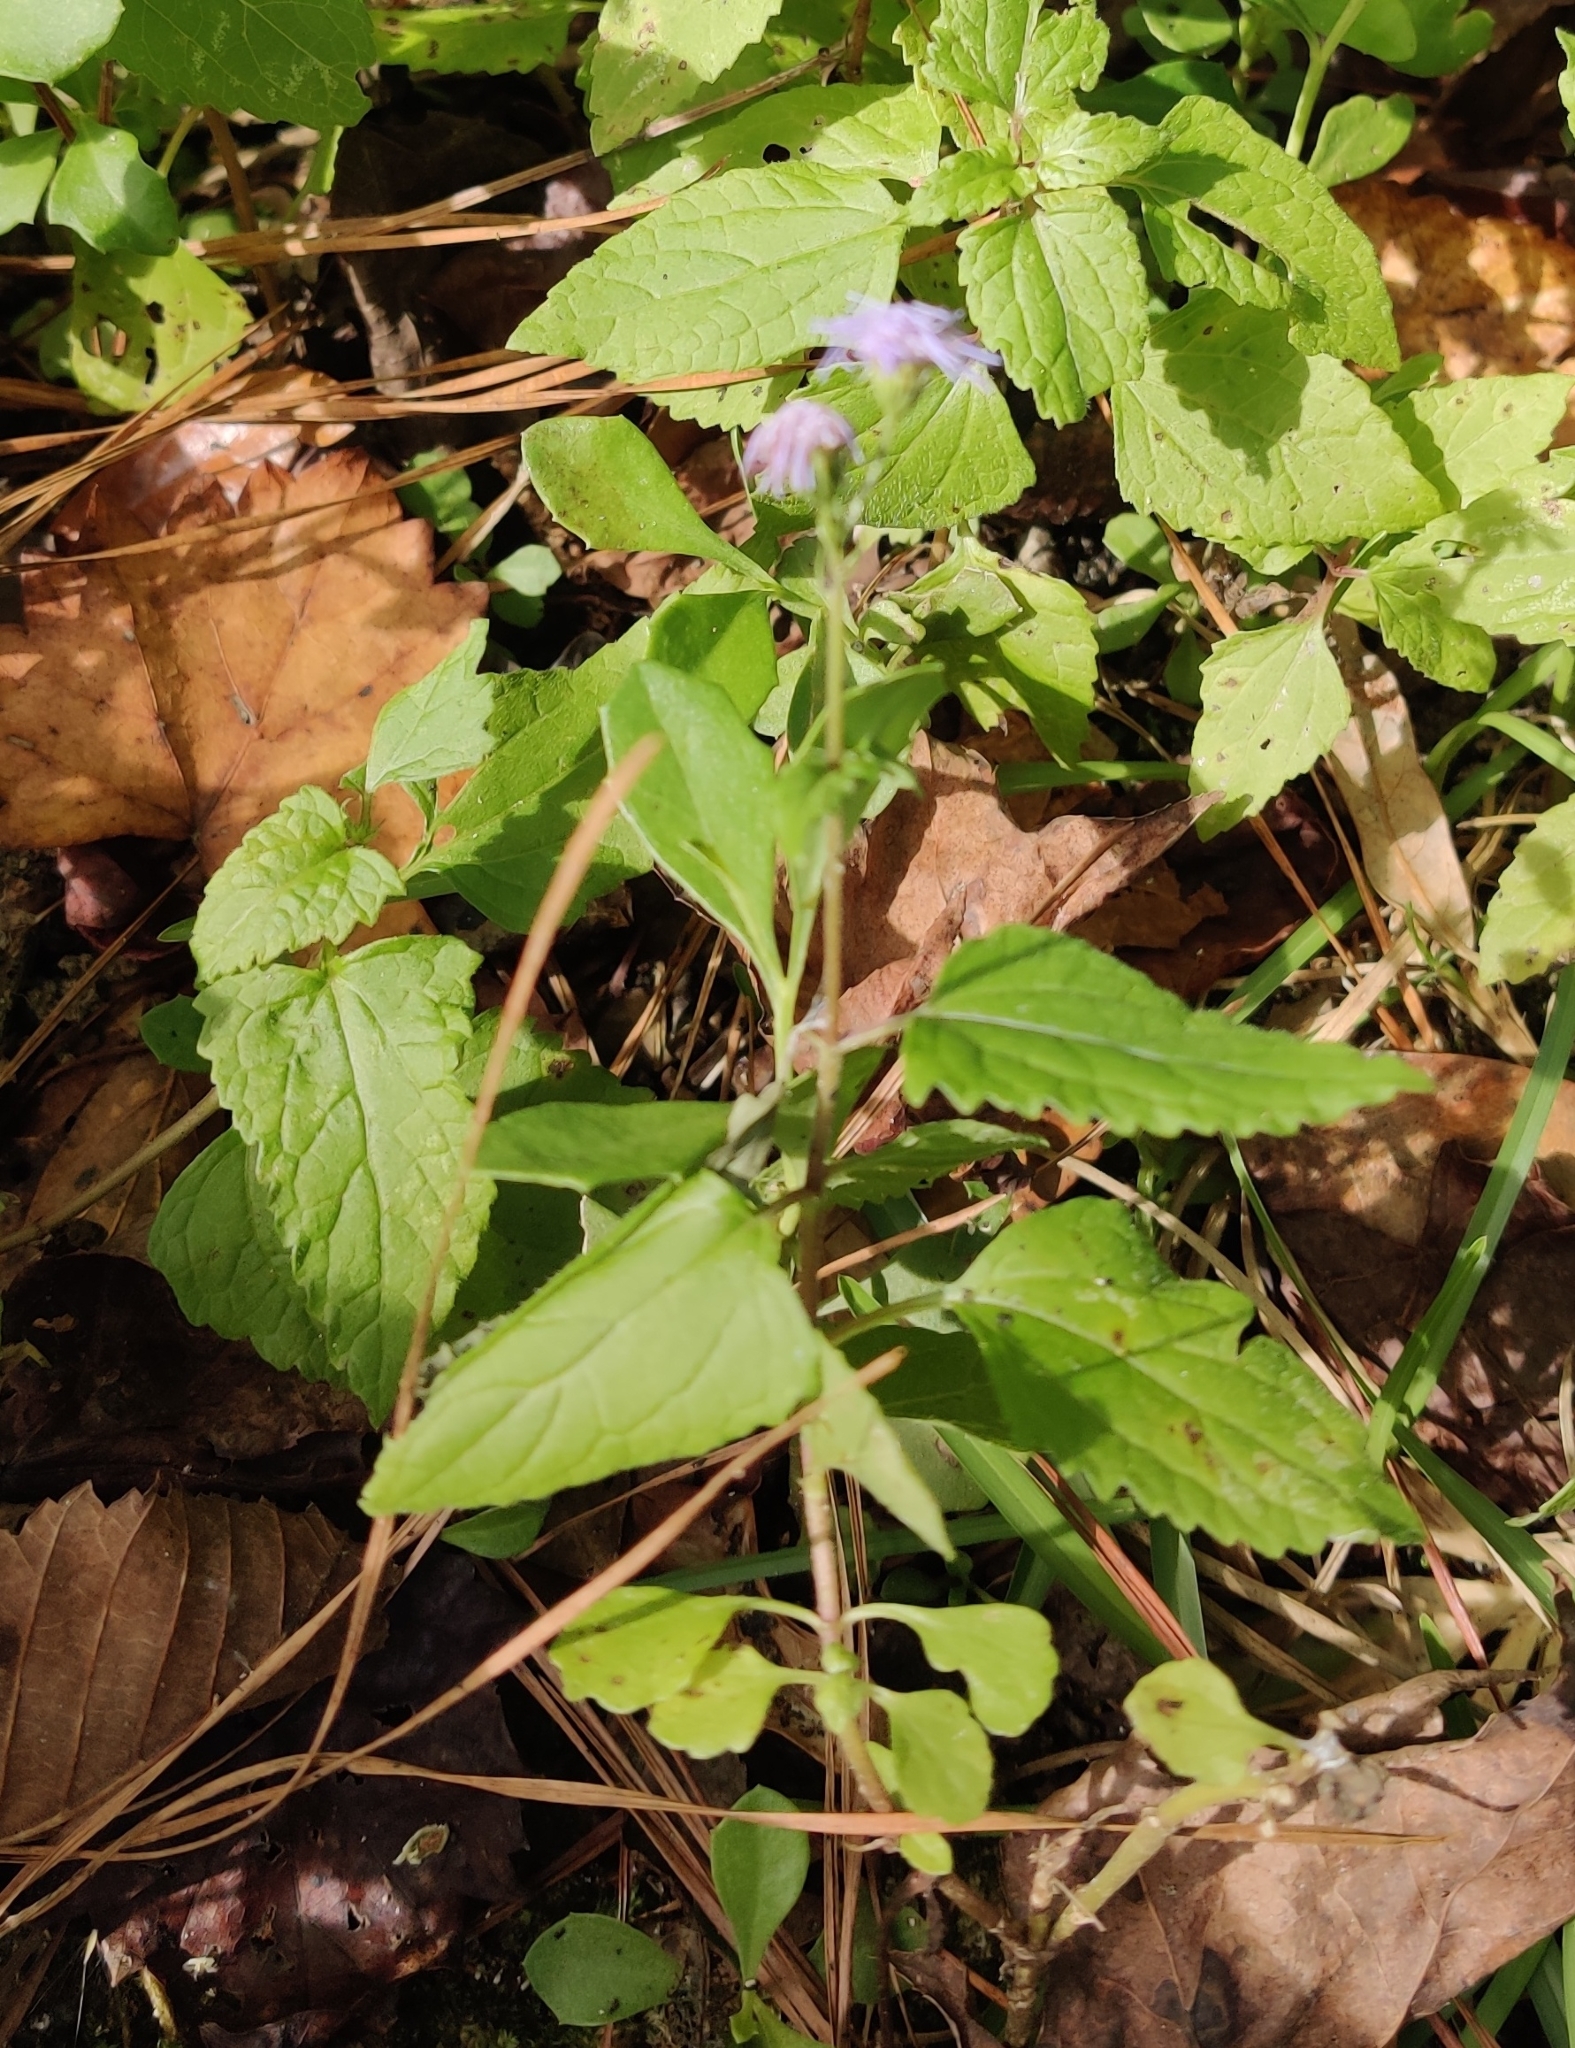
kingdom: Plantae
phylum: Tracheophyta
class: Magnoliopsida
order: Asterales
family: Asteraceae
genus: Conoclinium
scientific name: Conoclinium coelestinum
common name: Blue mistflower
